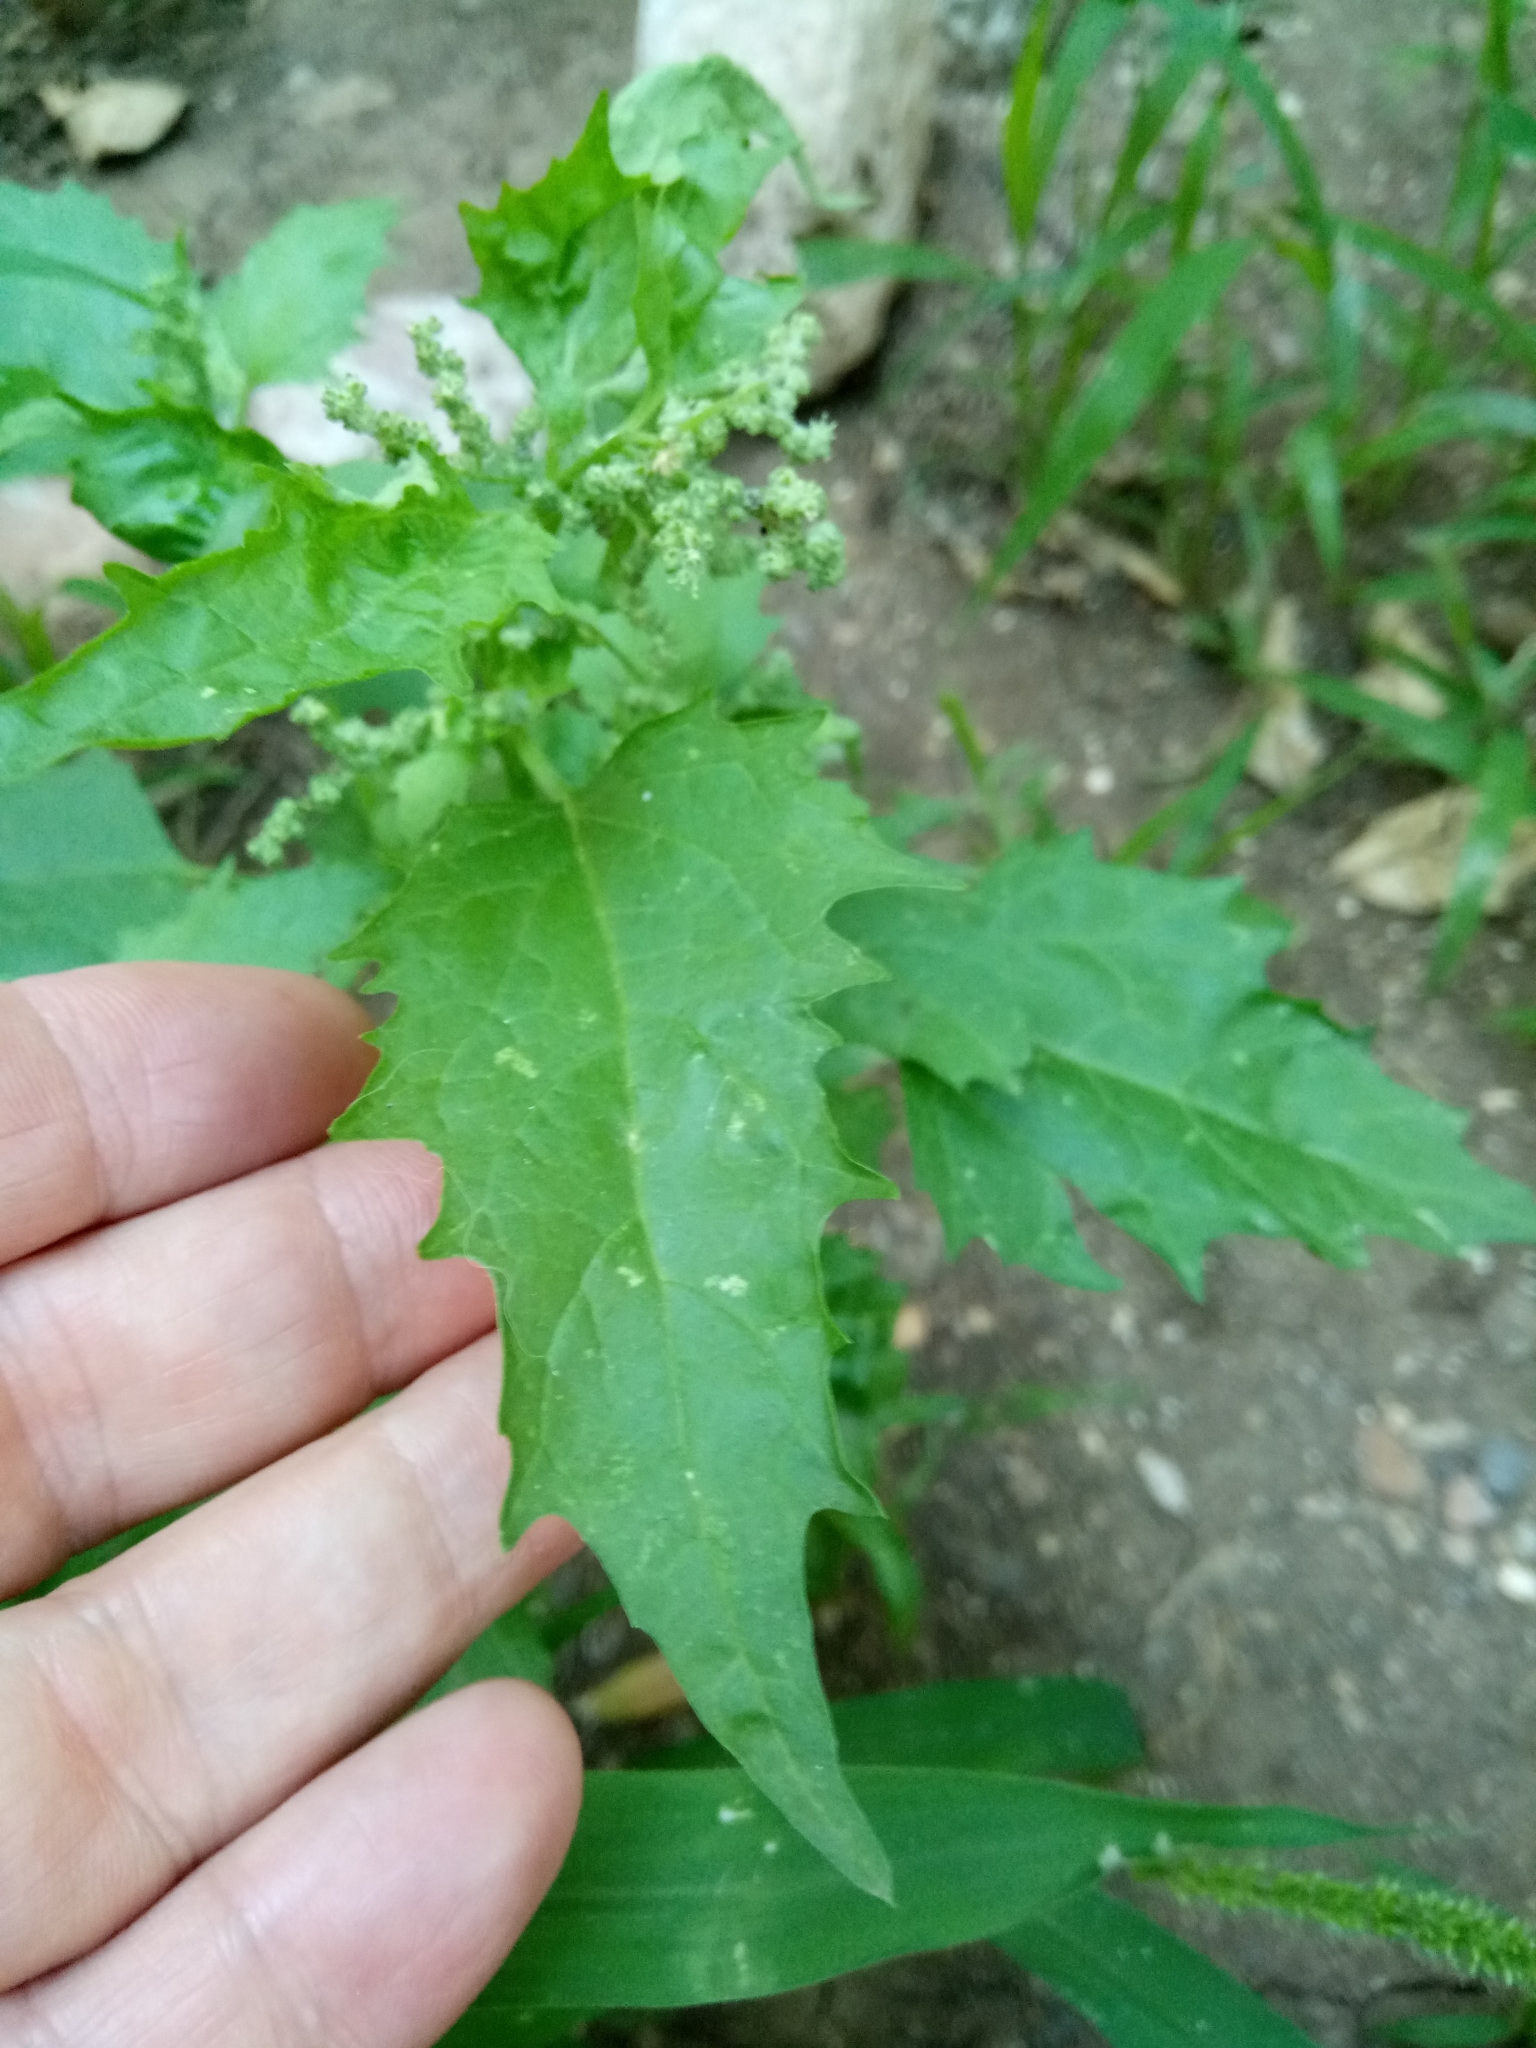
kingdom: Plantae
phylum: Tracheophyta
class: Magnoliopsida
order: Caryophyllales
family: Amaranthaceae
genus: Chenopodiastrum
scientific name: Chenopodiastrum murale
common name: Sowbane
